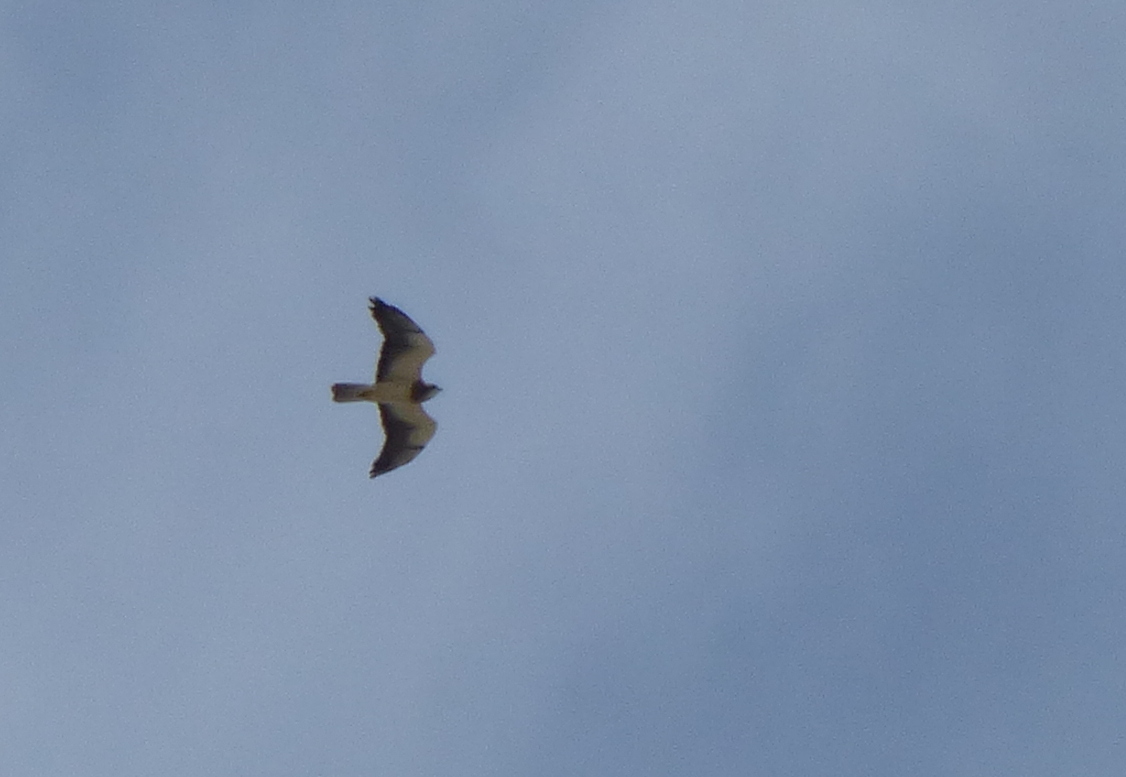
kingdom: Animalia
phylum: Chordata
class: Aves
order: Accipitriformes
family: Accipitridae
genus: Buteo
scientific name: Buteo swainsoni
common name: Swainson's hawk
